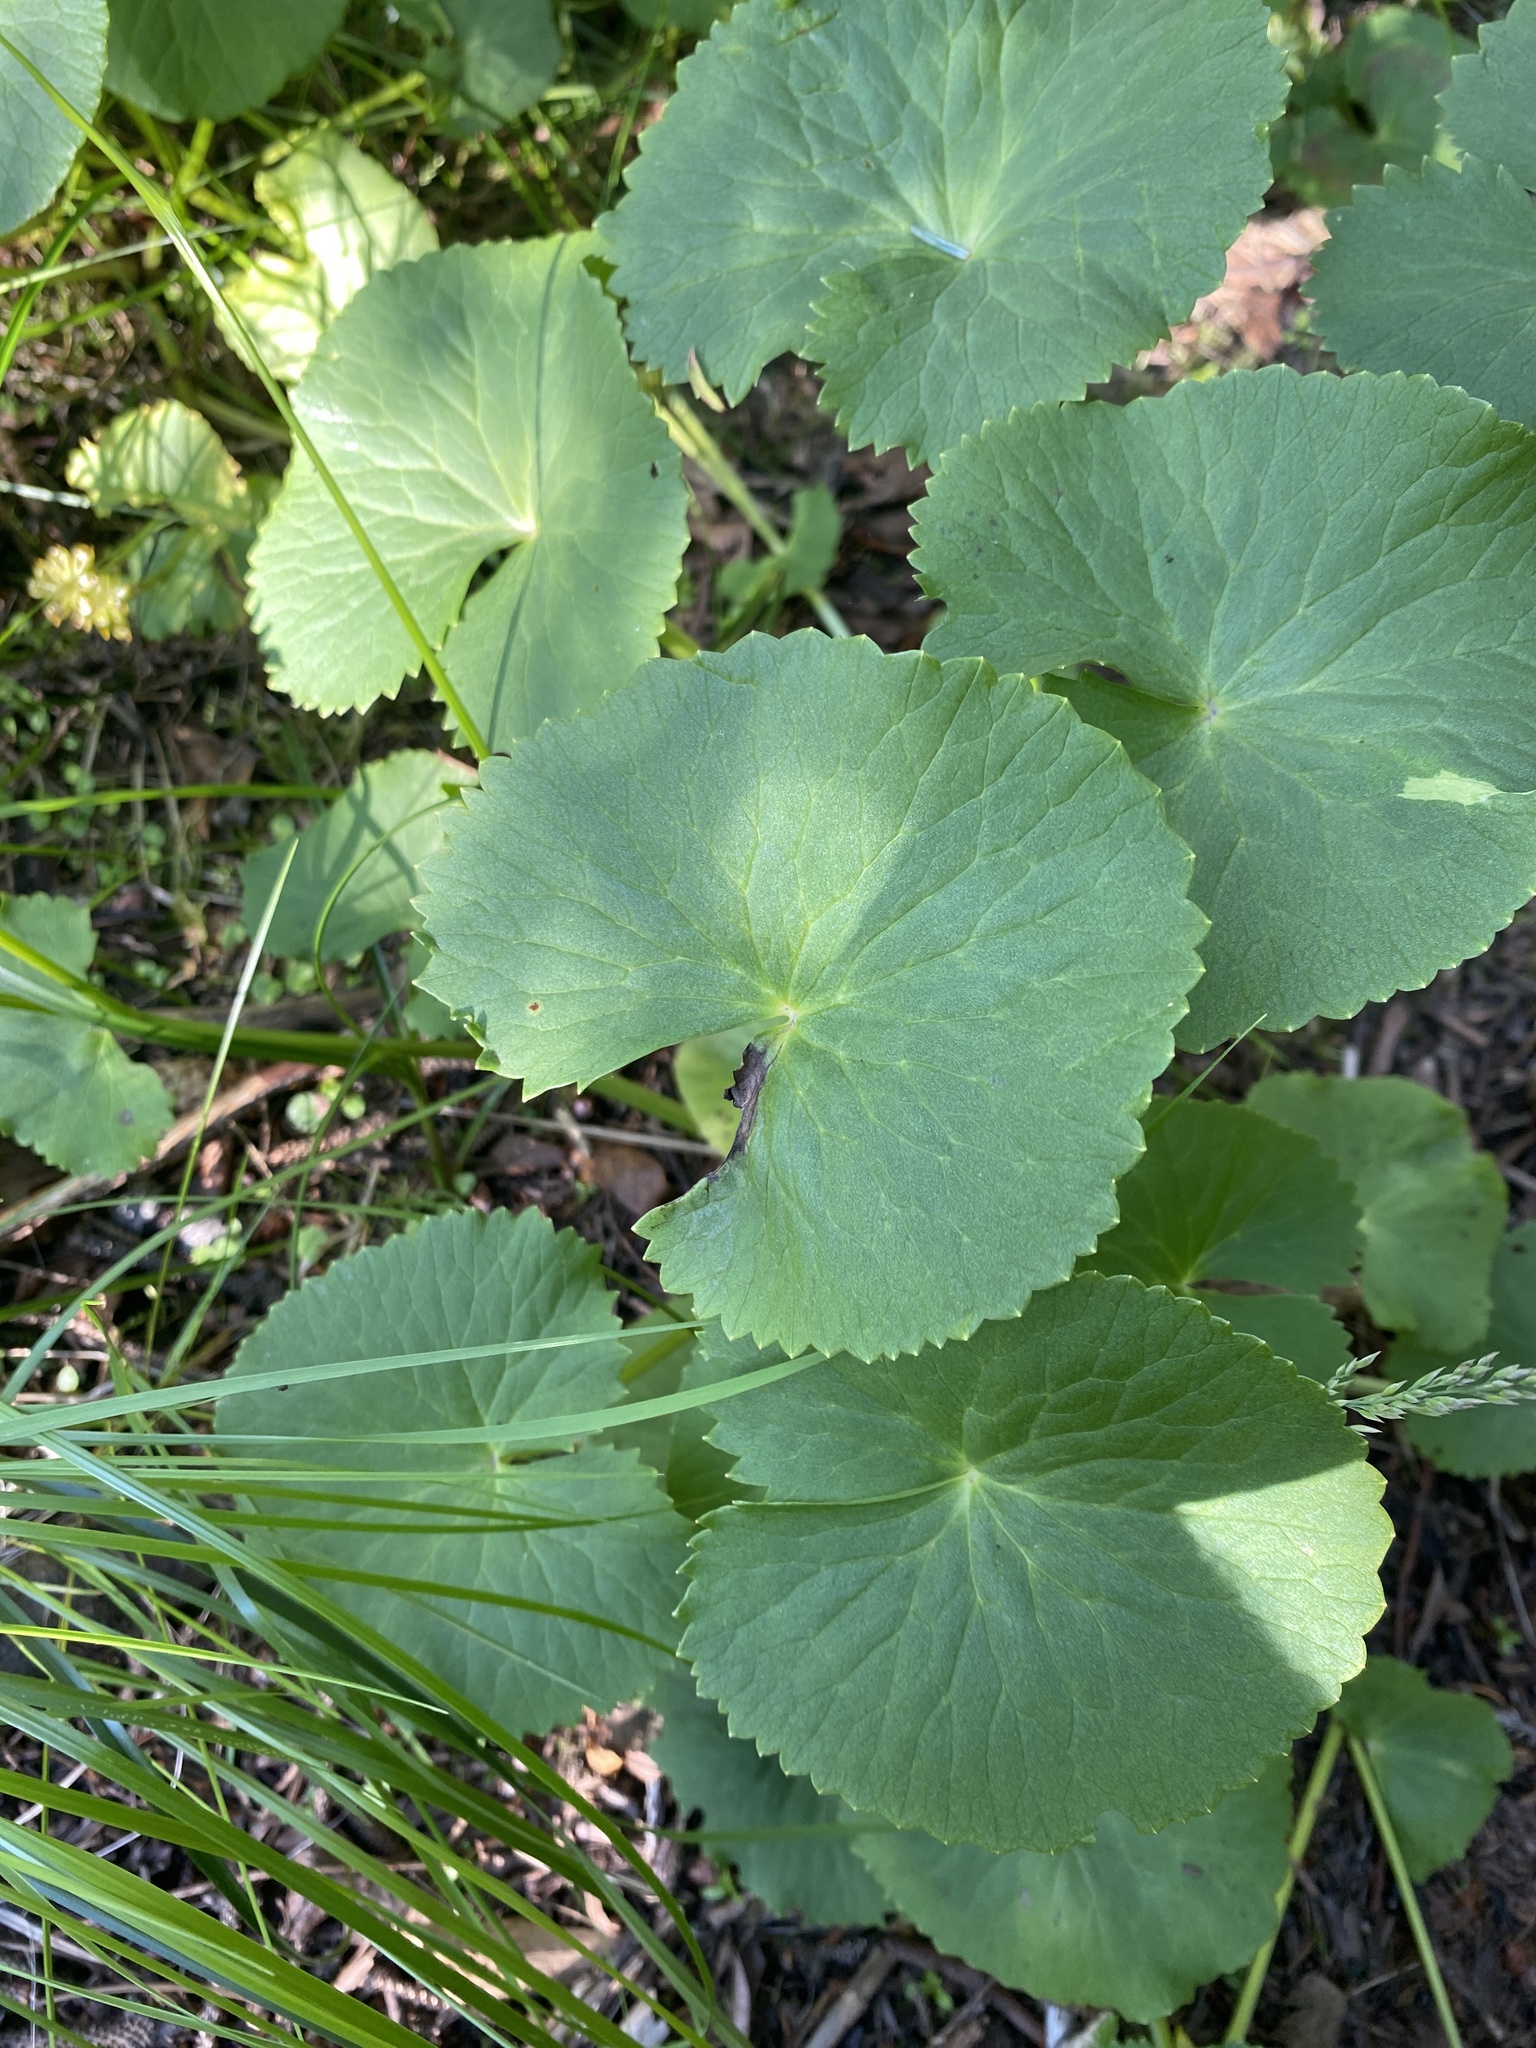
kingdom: Plantae
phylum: Tracheophyta
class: Magnoliopsida
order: Ranunculales
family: Ranunculaceae
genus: Caltha
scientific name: Caltha palustris
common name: Marsh marigold
